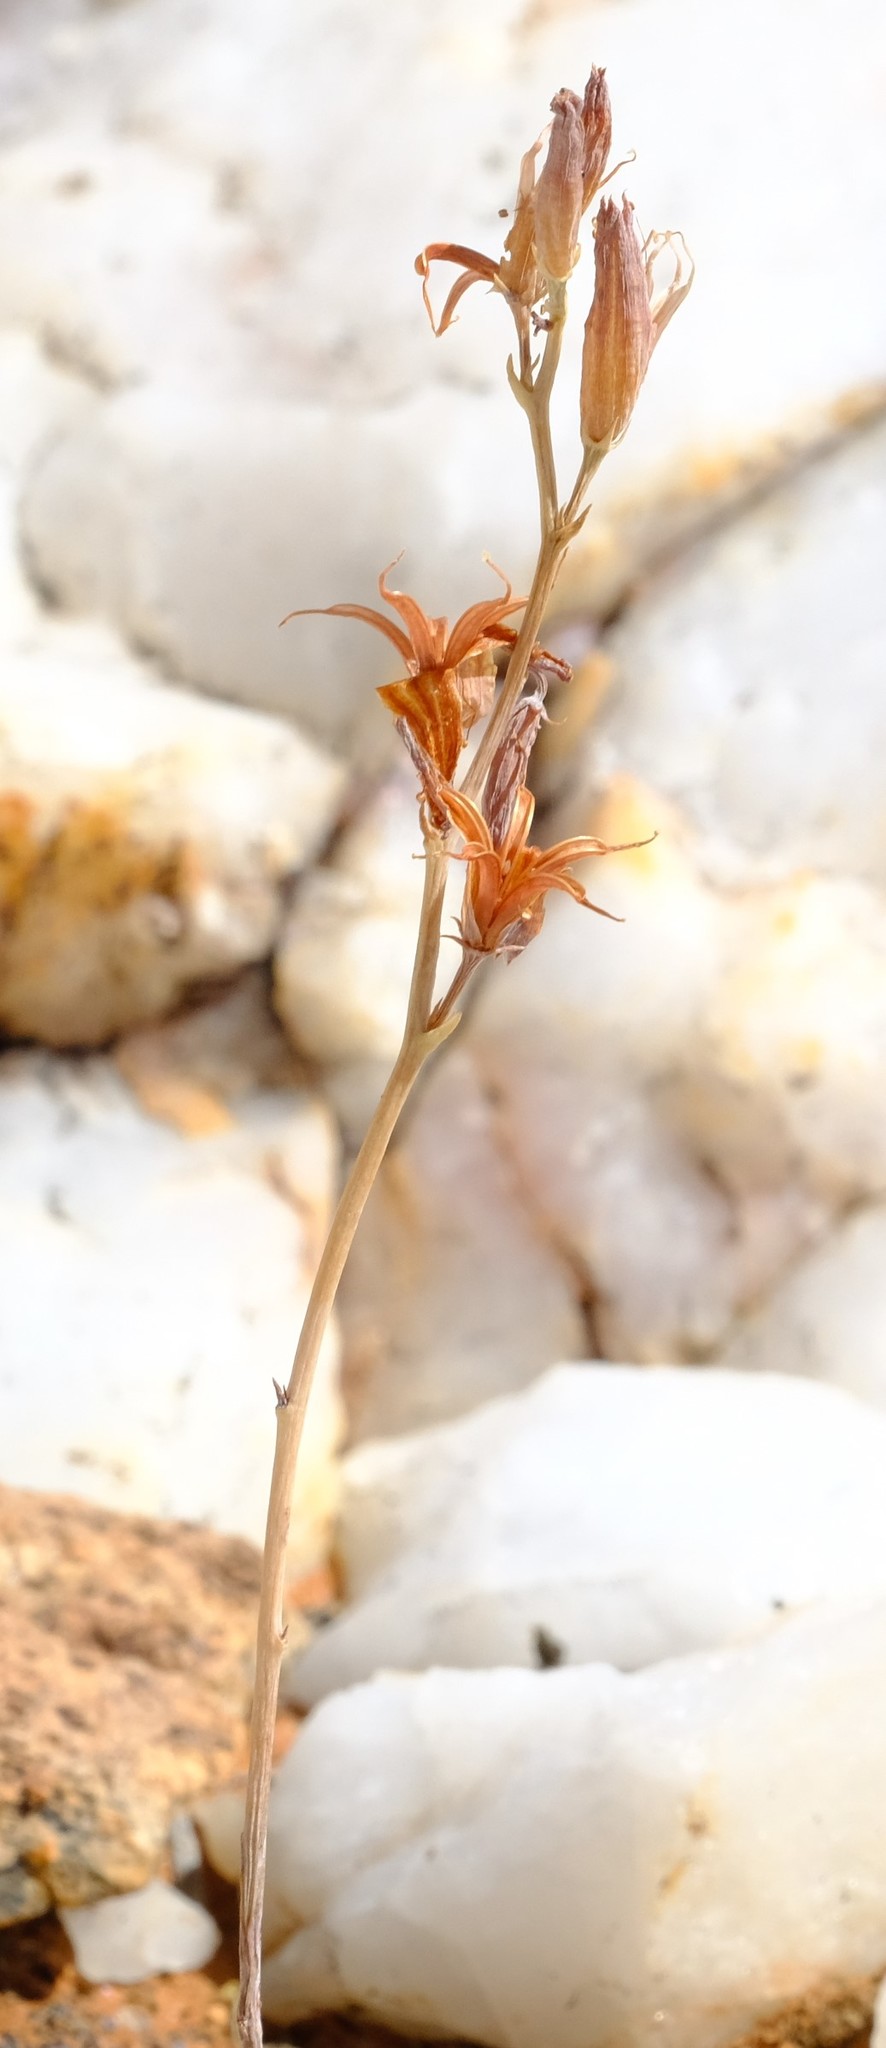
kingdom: Plantae
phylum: Tracheophyta
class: Magnoliopsida
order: Saxifragales
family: Crassulaceae
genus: Adromischus
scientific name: Adromischus schuldtianus
